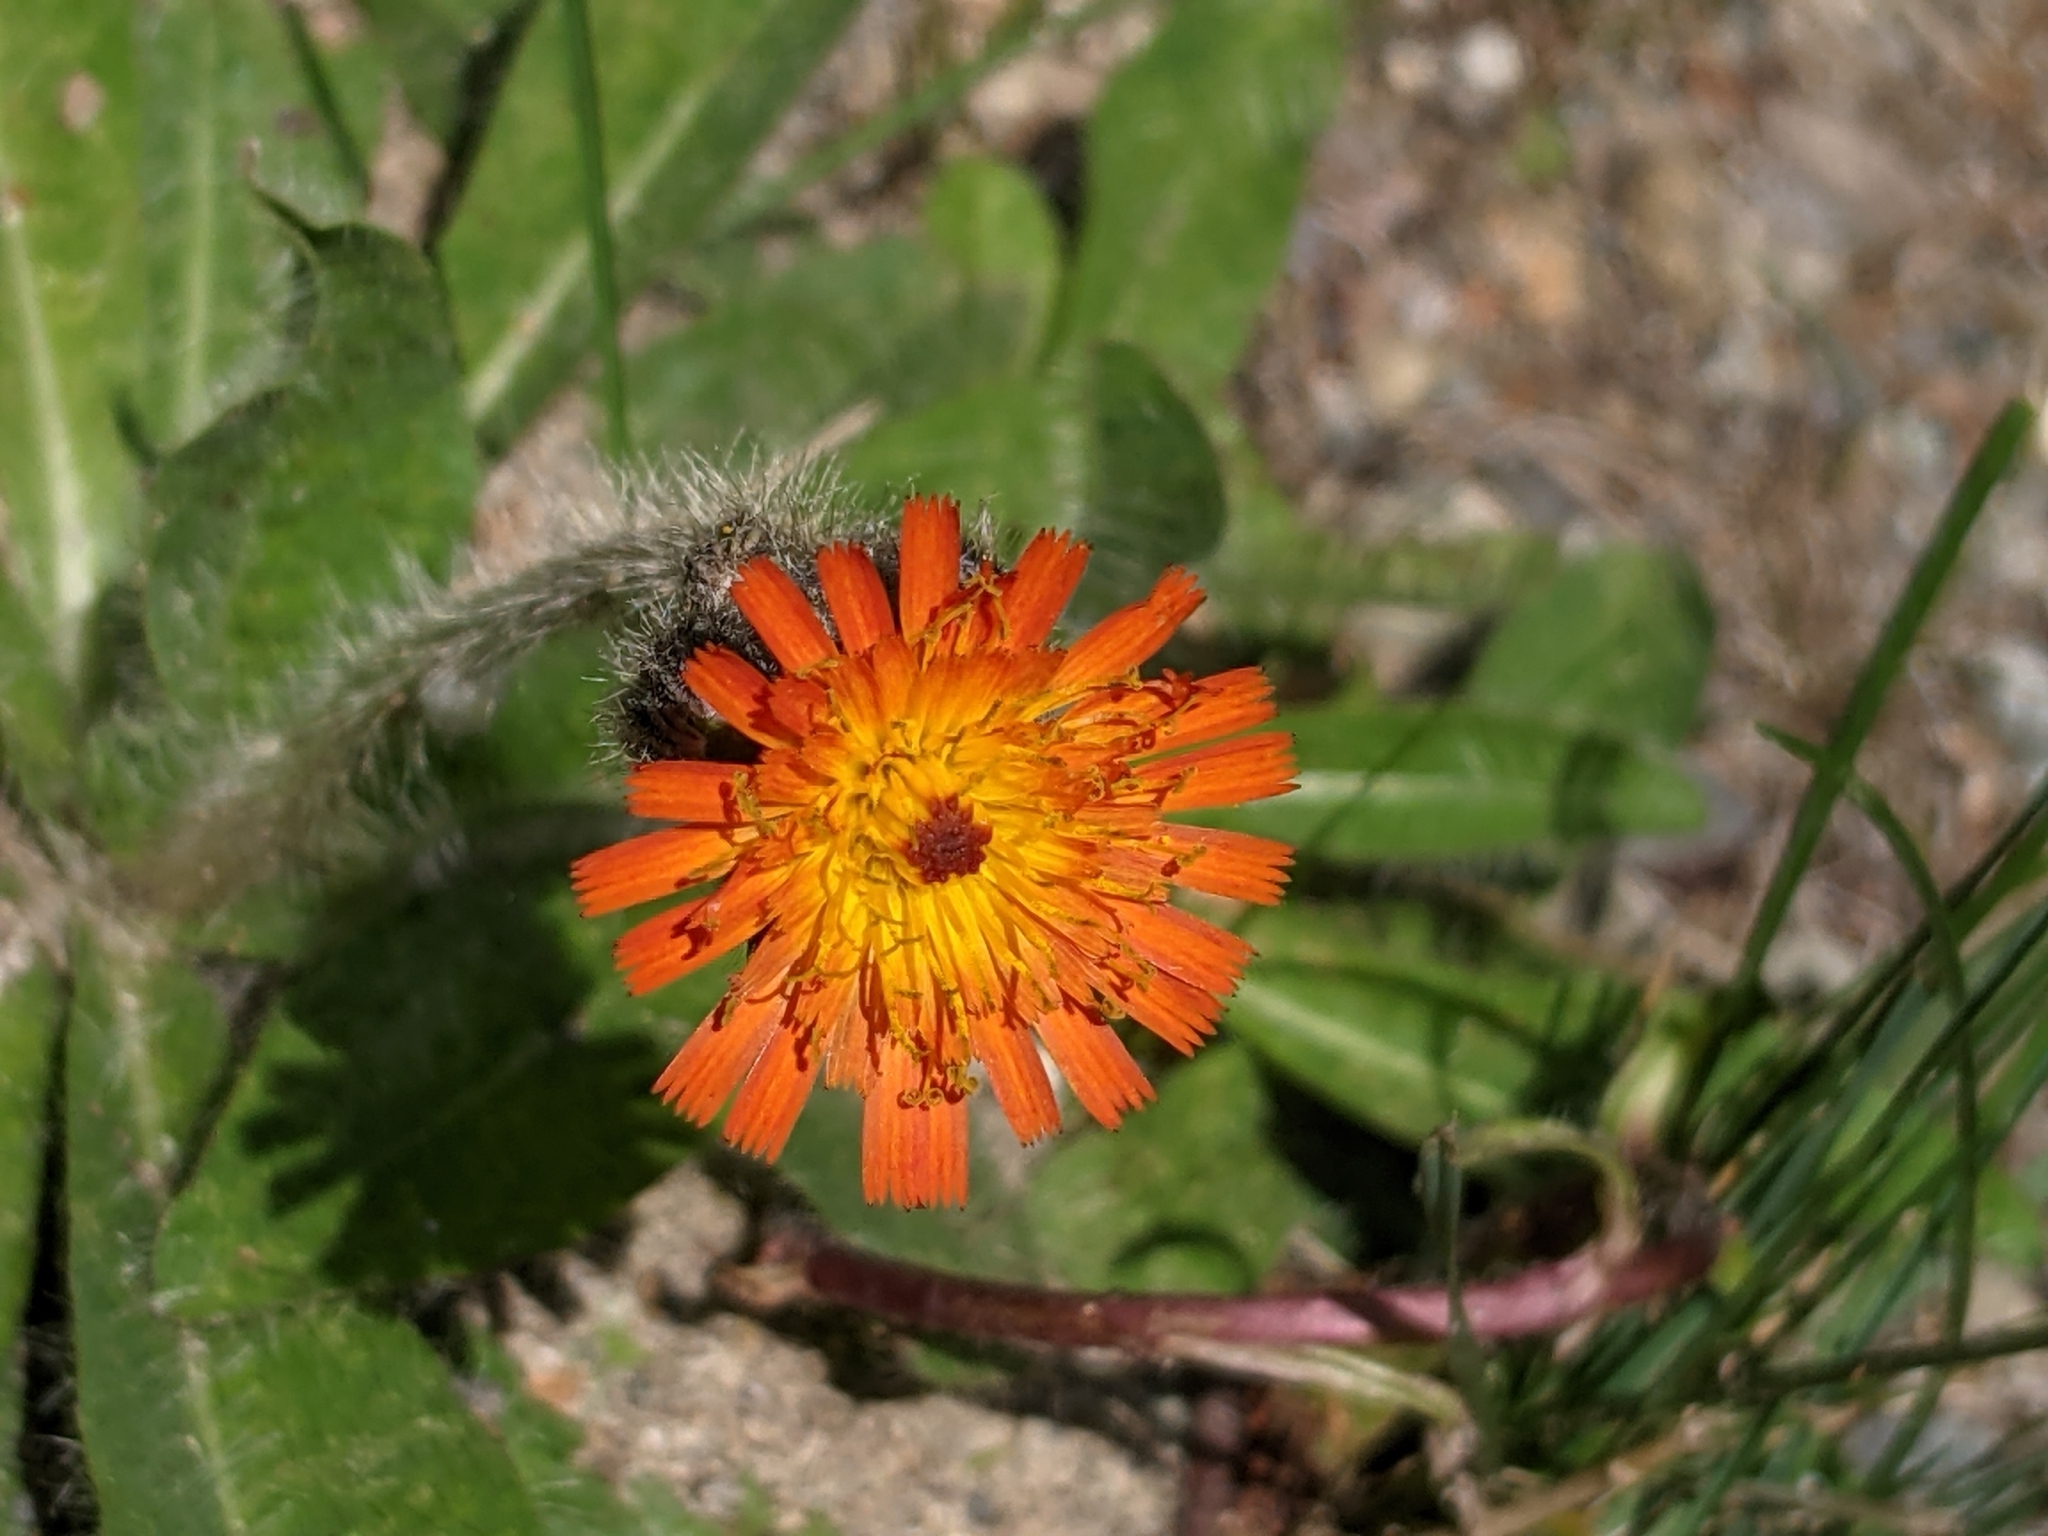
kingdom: Plantae
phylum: Tracheophyta
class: Magnoliopsida
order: Asterales
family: Asteraceae
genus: Pilosella
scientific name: Pilosella aurantiaca
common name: Fox-and-cubs
